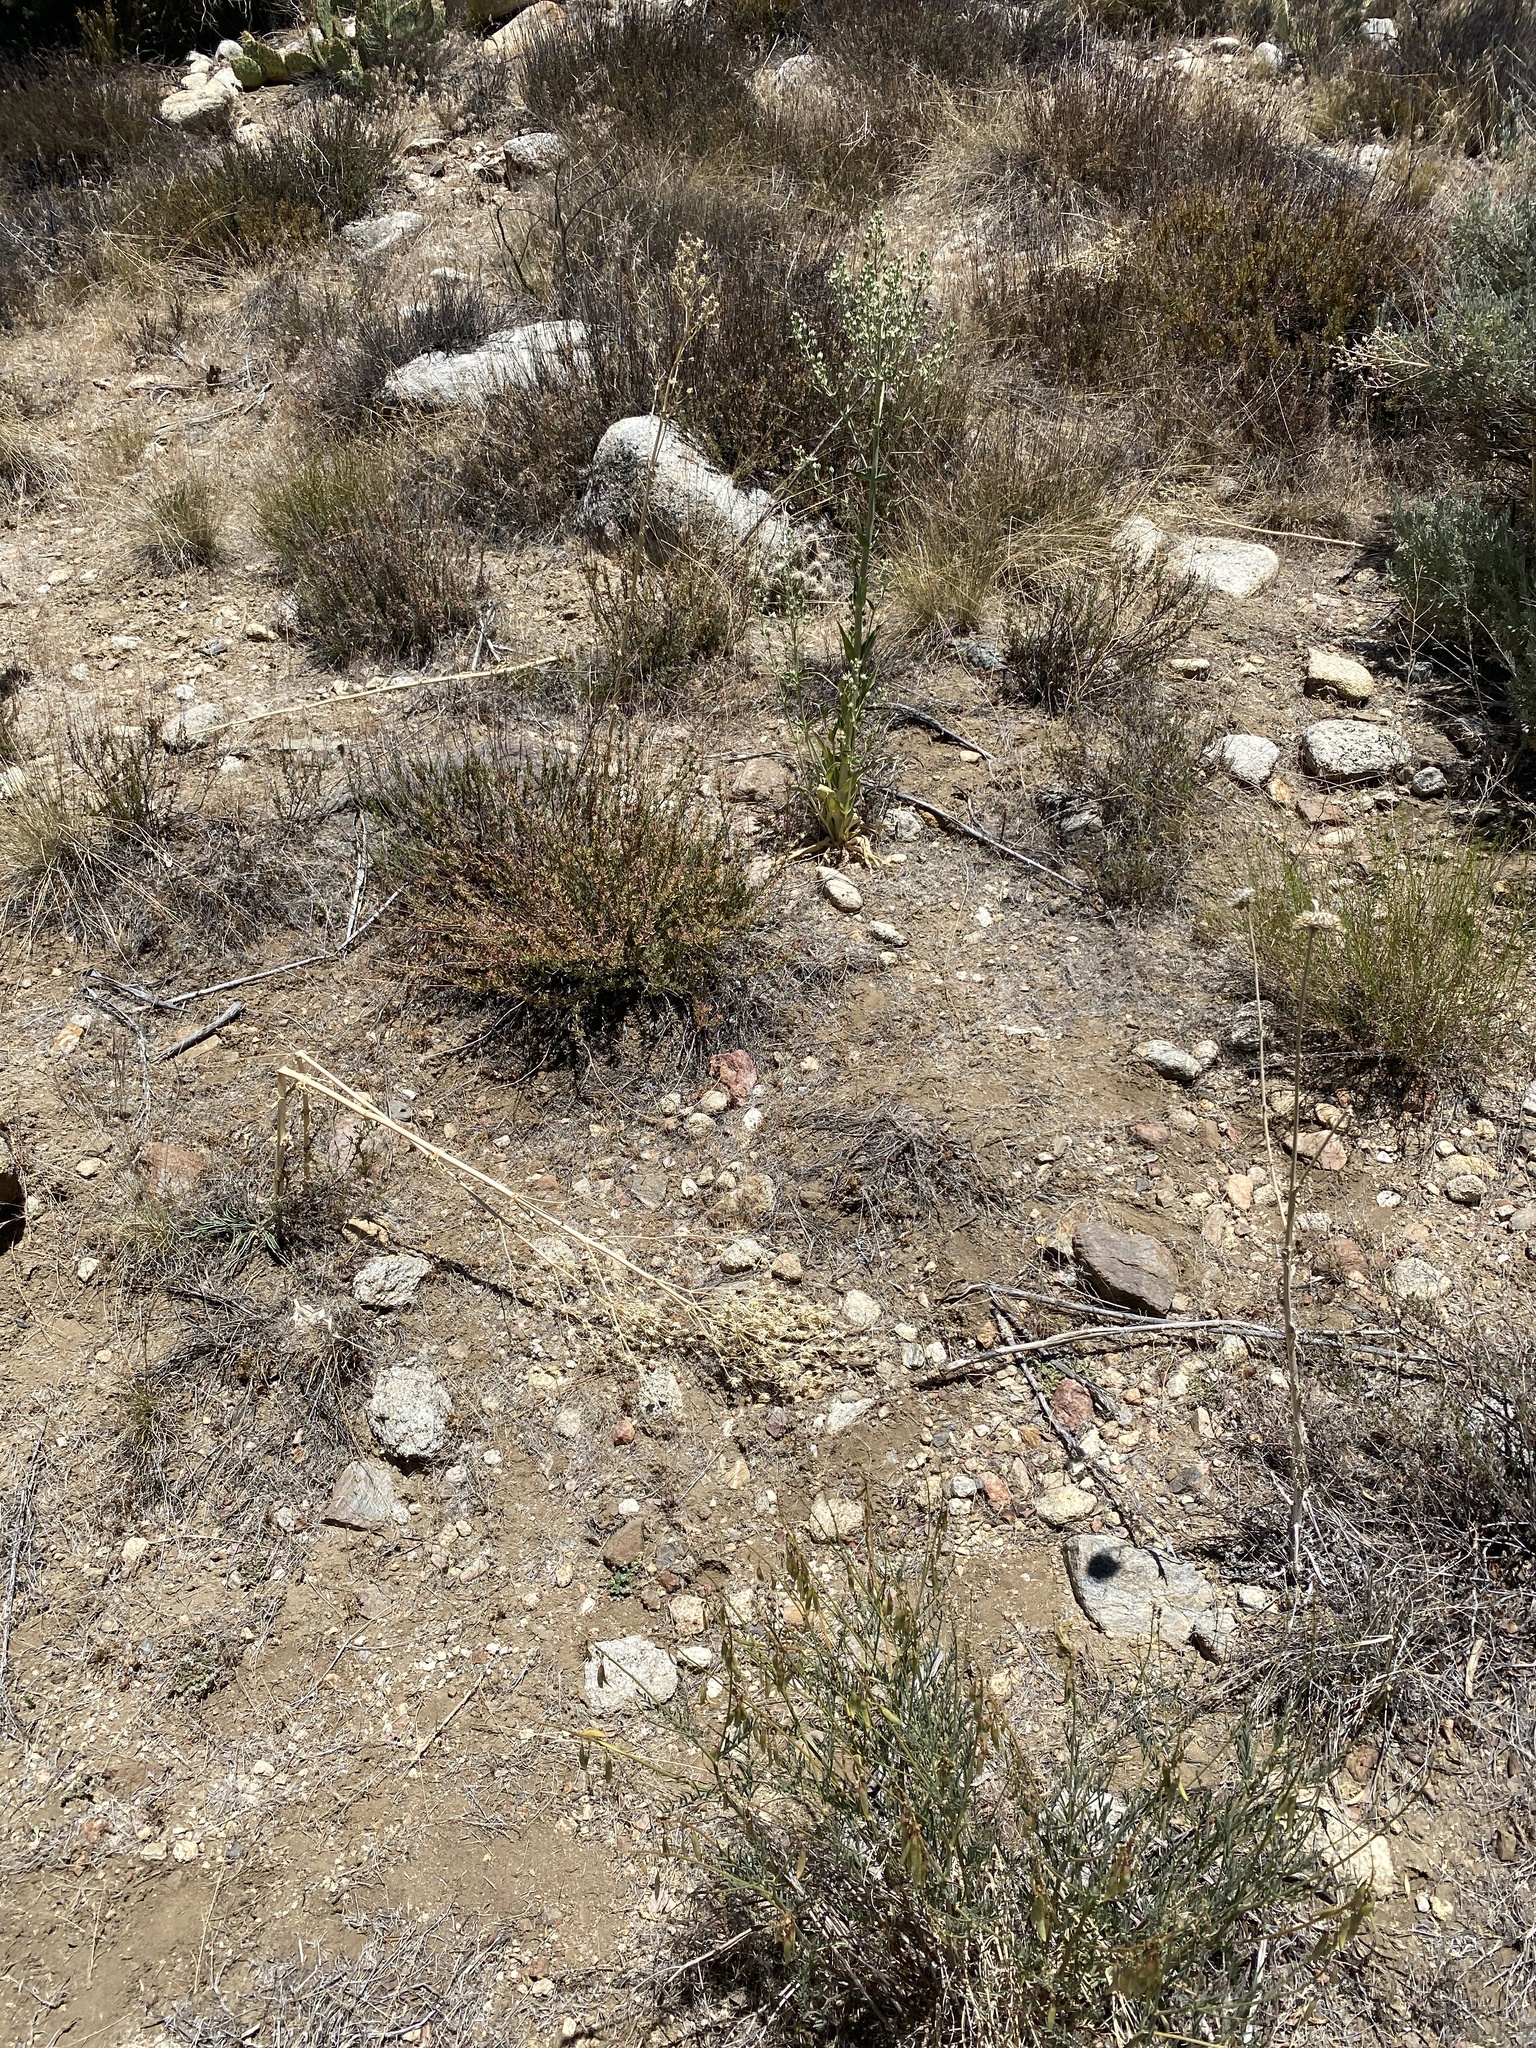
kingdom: Plantae
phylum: Tracheophyta
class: Magnoliopsida
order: Gentianales
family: Gentianaceae
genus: Frasera
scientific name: Frasera parryi
